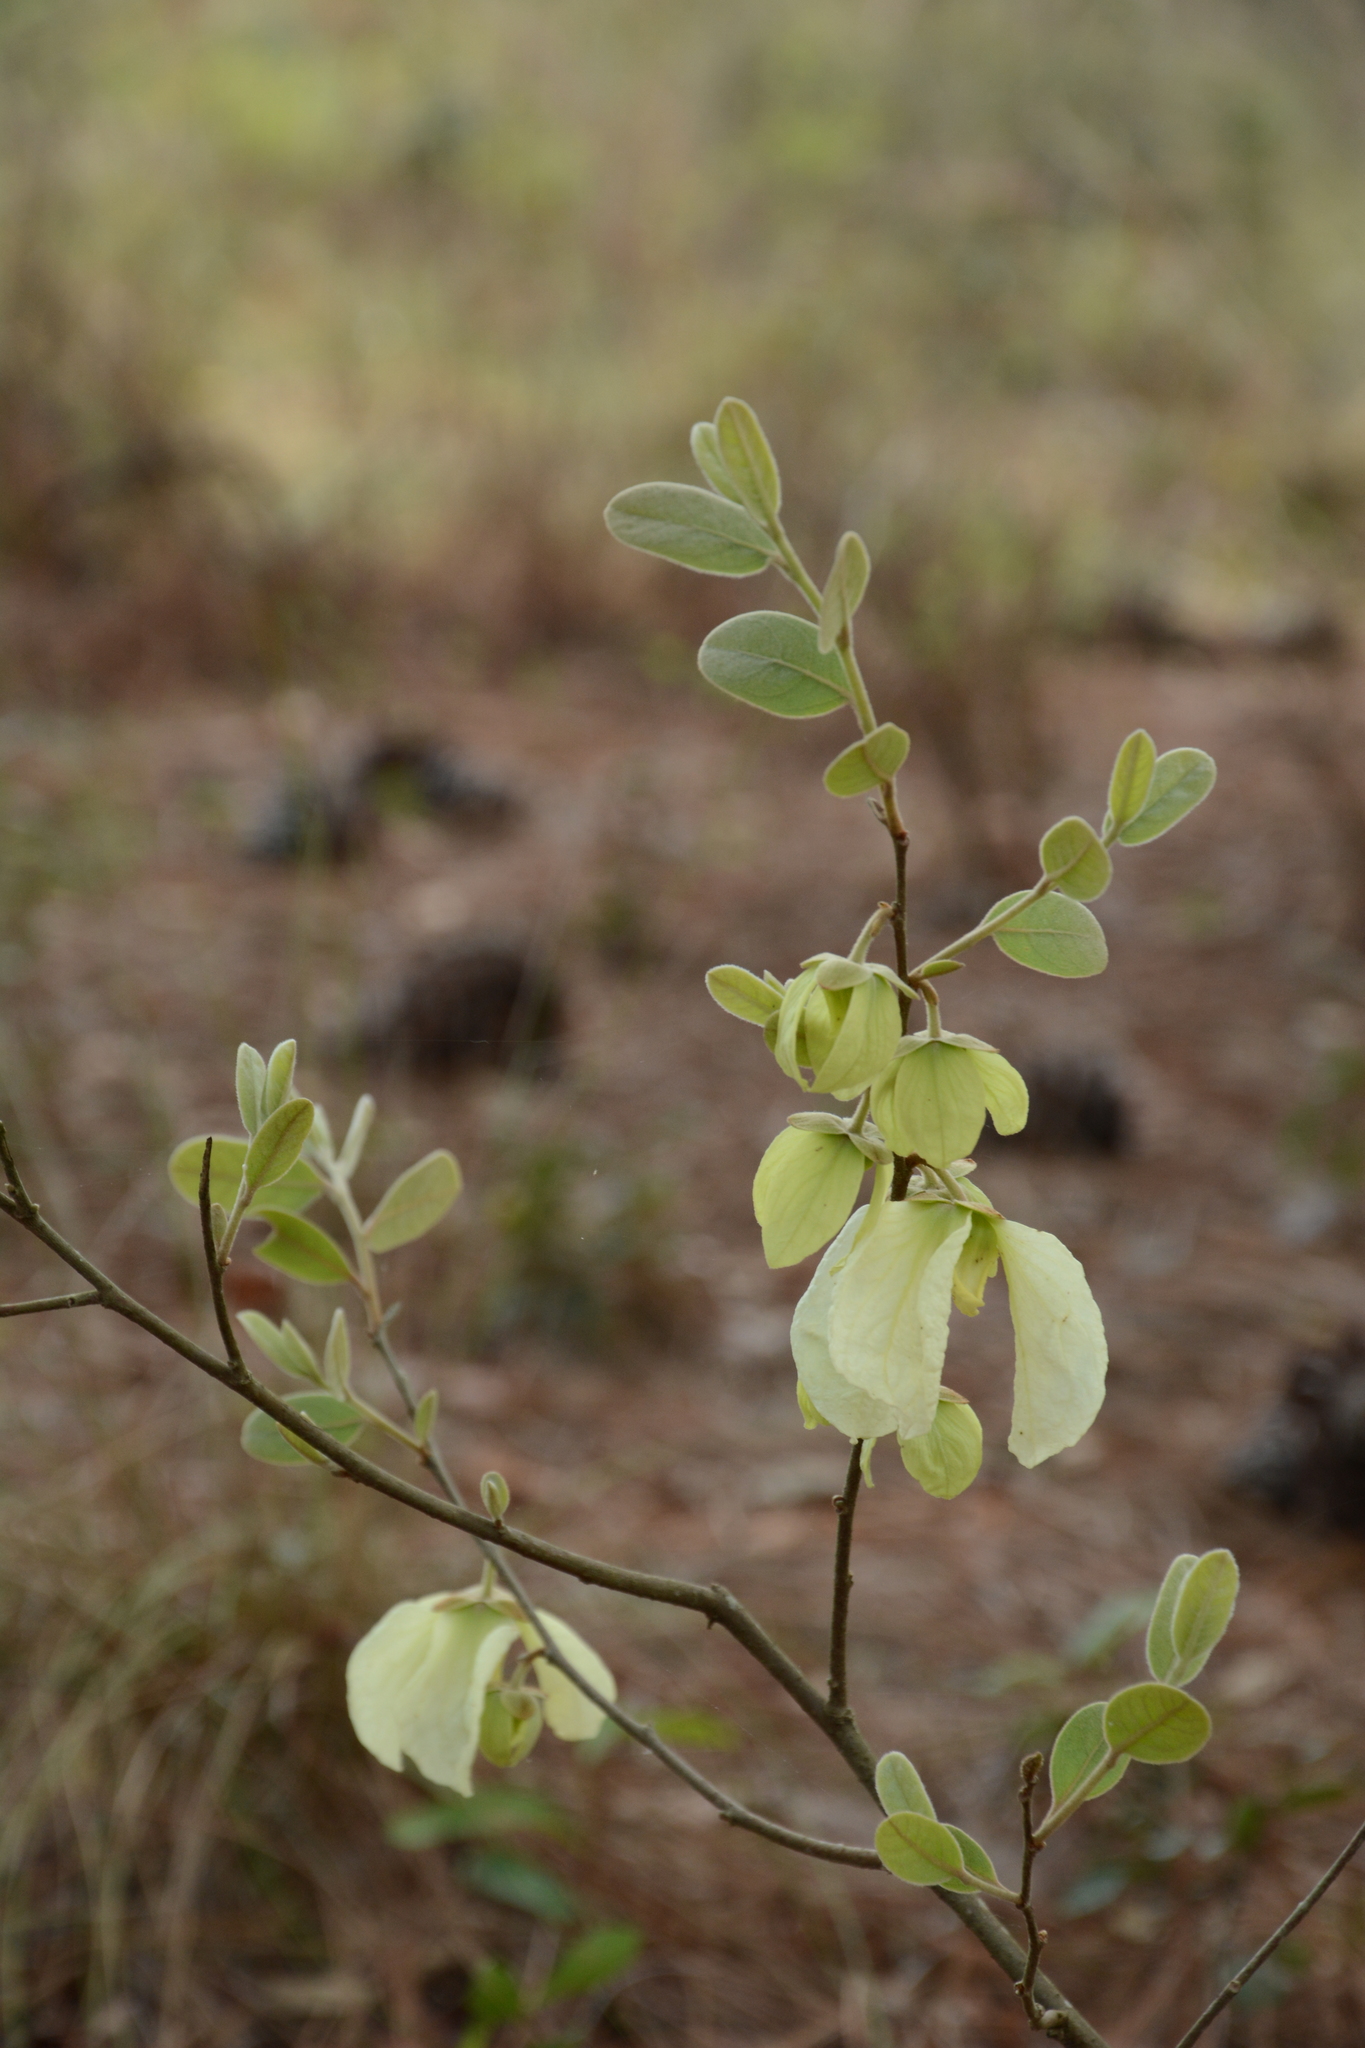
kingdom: Plantae
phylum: Tracheophyta
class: Magnoliopsida
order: Magnoliales
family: Annonaceae
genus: Asimina
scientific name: Asimina speciosa
